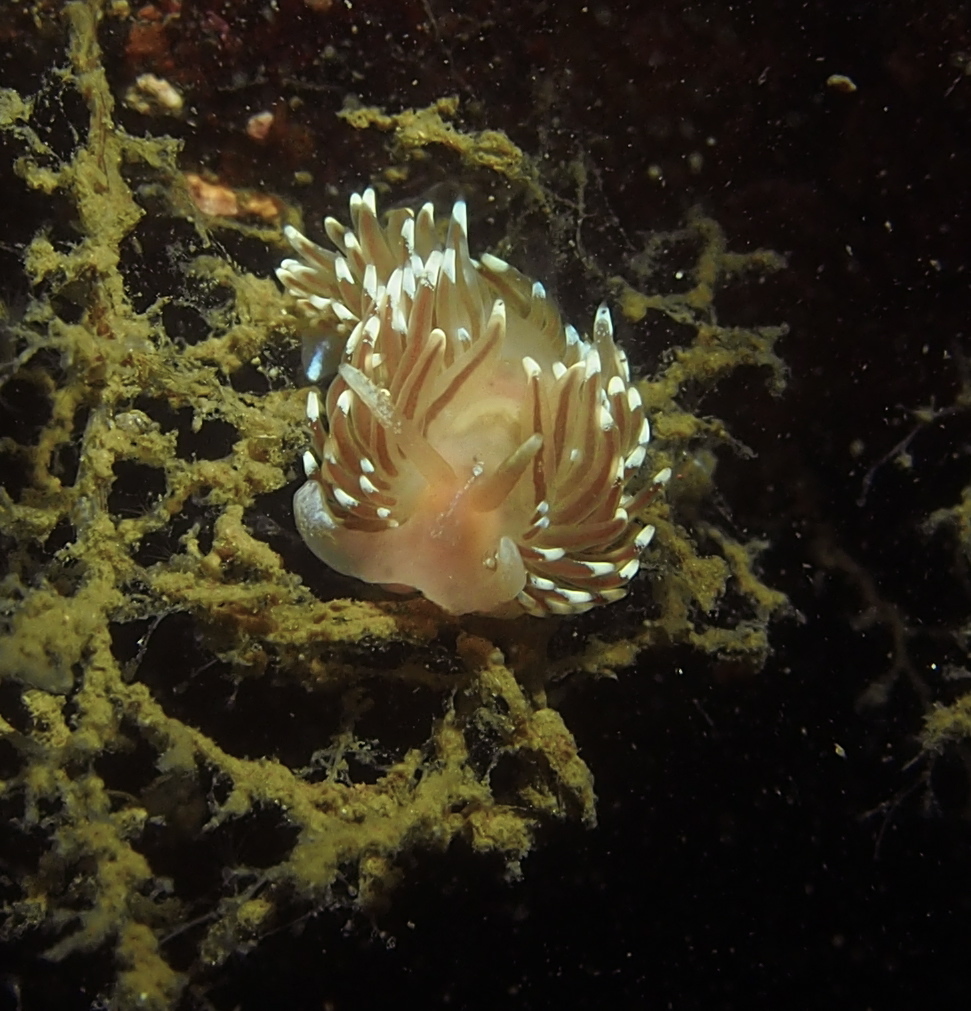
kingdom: Animalia
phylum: Mollusca
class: Gastropoda
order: Nudibranchia
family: Facelinidae
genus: Facelina
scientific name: Facelina bostoniensis
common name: Boston facelina
